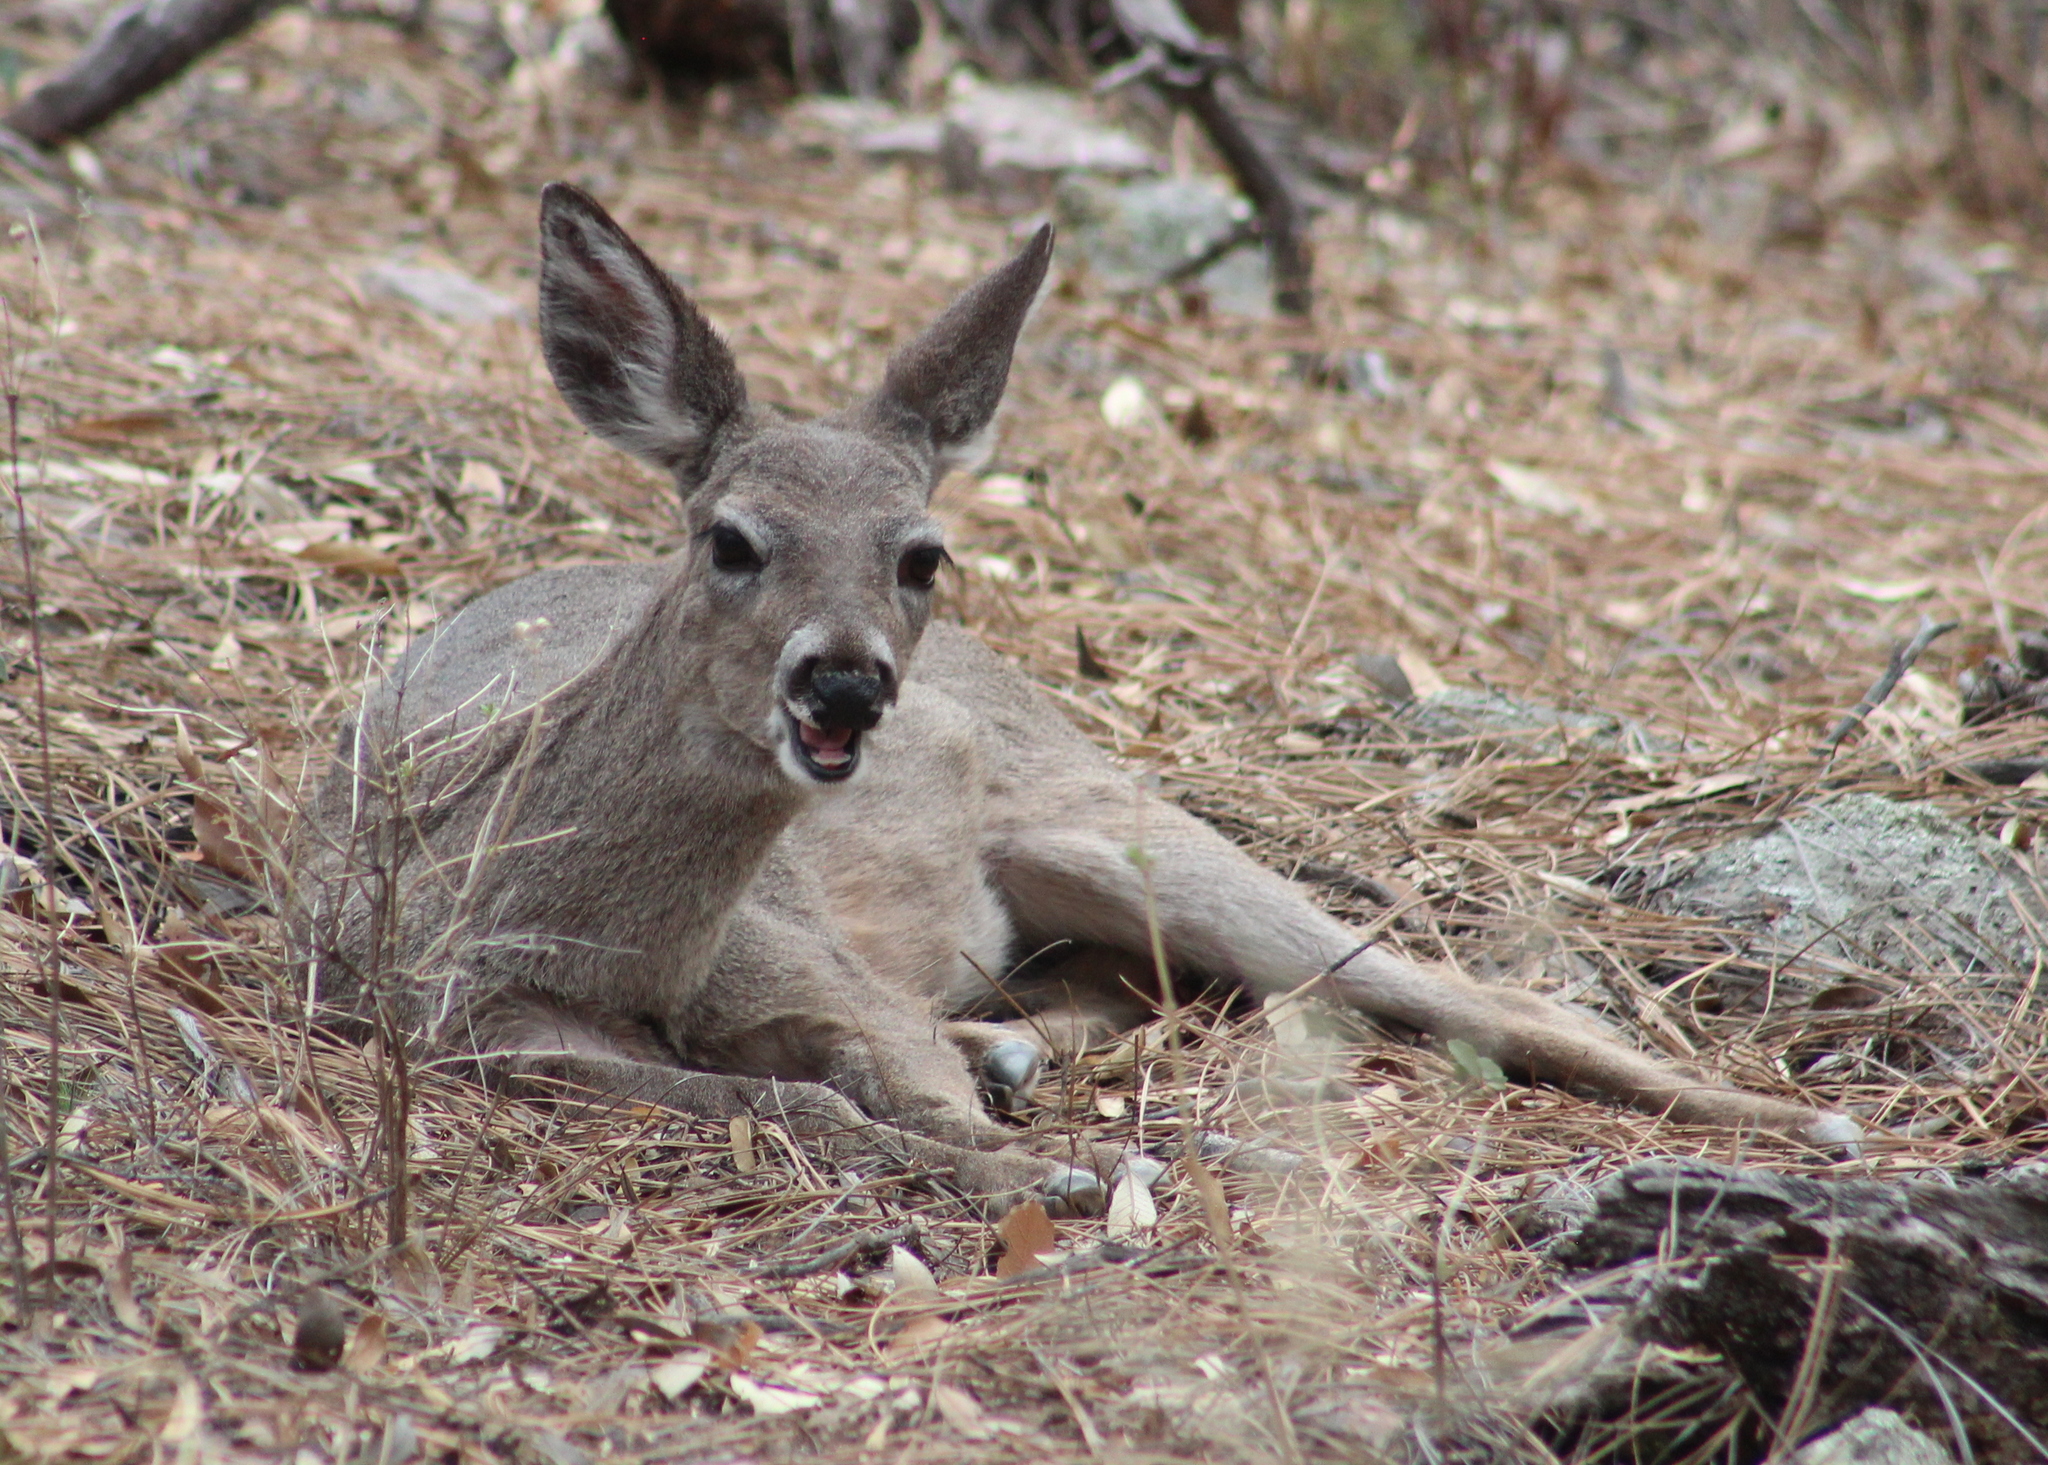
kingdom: Animalia
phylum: Chordata
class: Mammalia
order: Artiodactyla
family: Cervidae
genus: Odocoileus
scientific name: Odocoileus virginianus
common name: White-tailed deer
